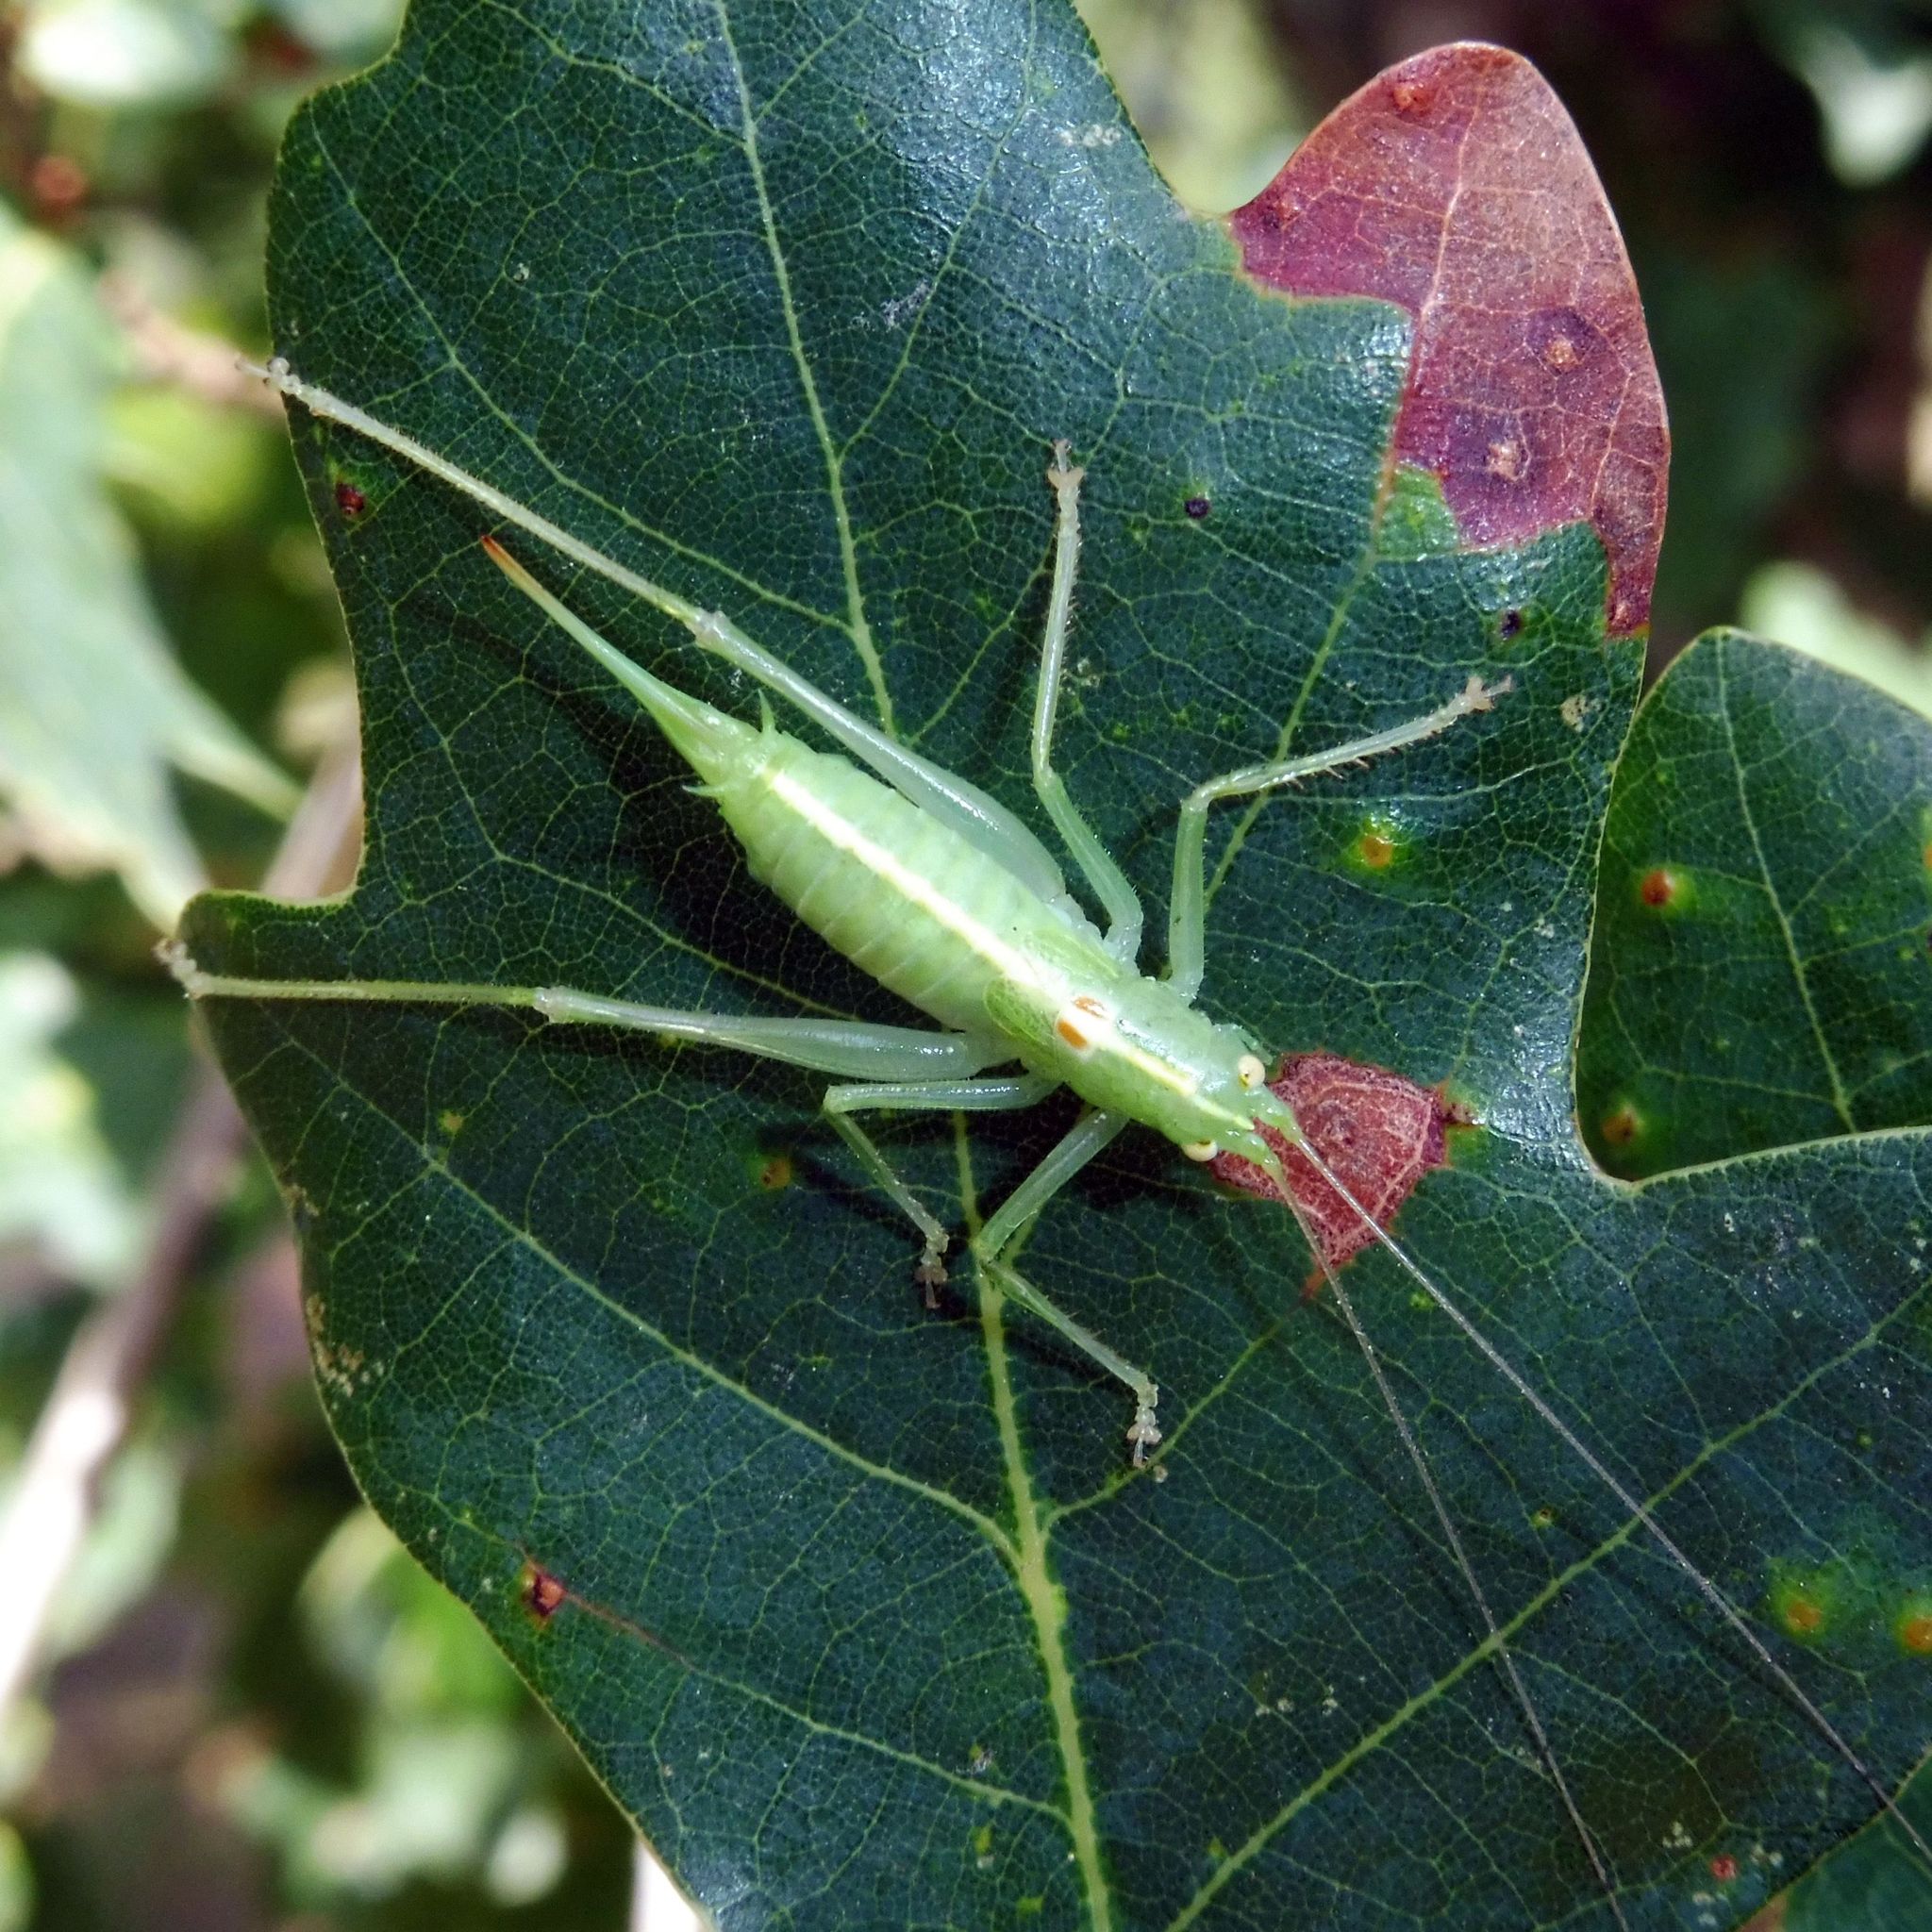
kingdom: Animalia
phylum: Arthropoda
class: Insecta
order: Orthoptera
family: Tettigoniidae
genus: Meconema
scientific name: Meconema meridionale
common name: Southern oak bush-cricket
